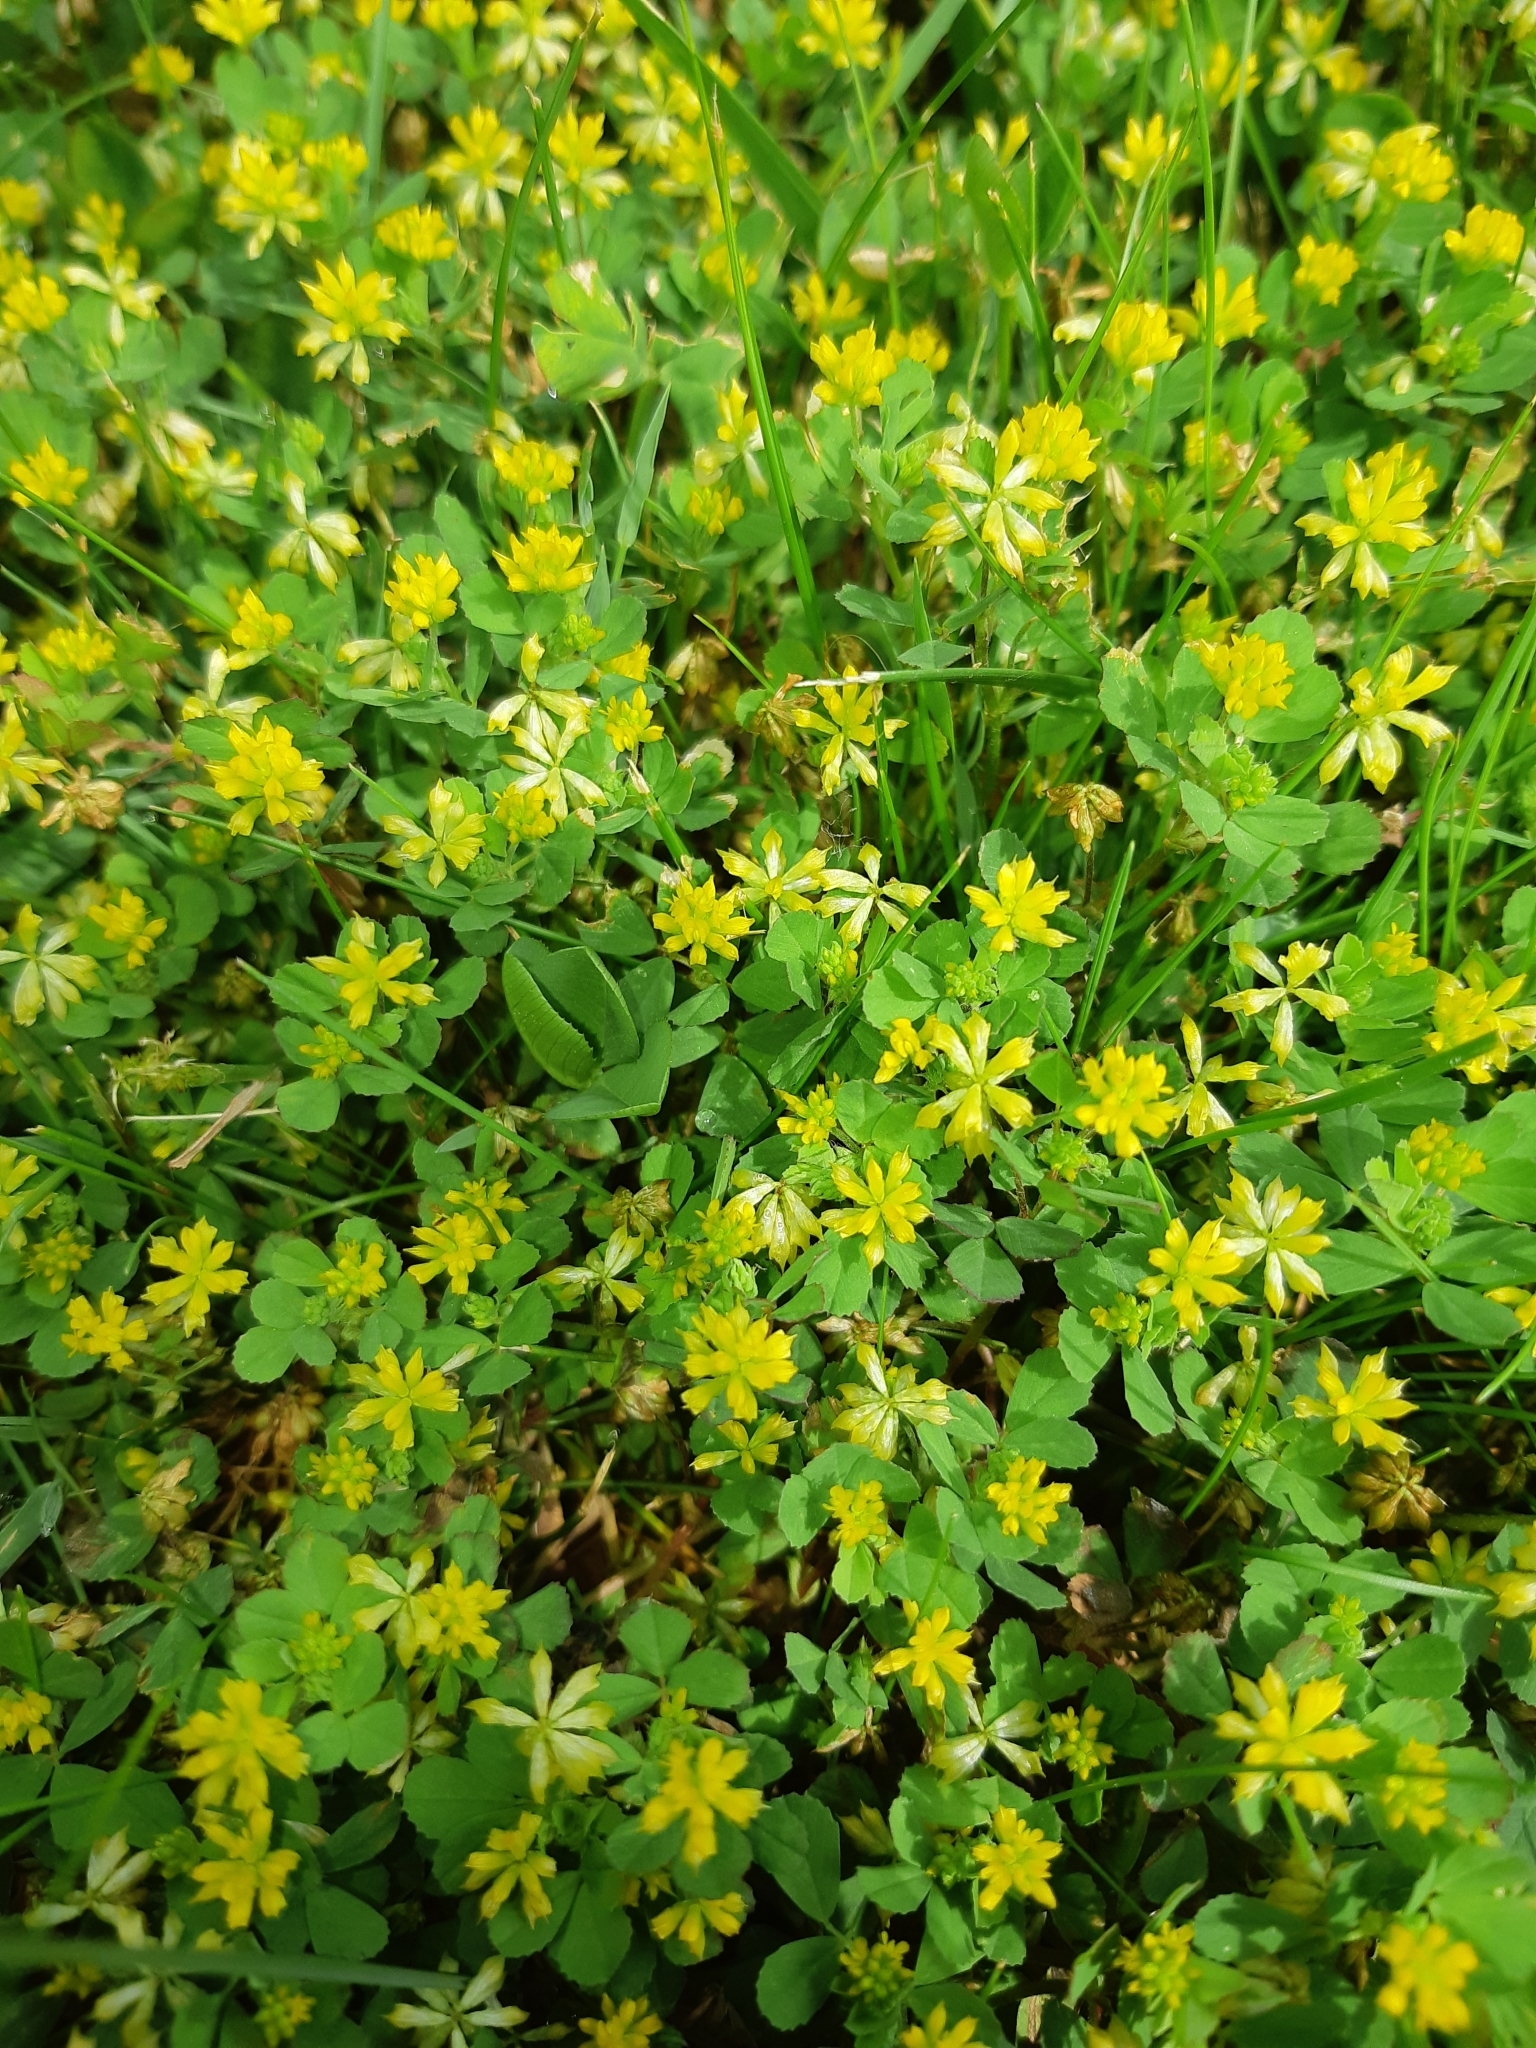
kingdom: Plantae
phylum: Tracheophyta
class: Magnoliopsida
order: Fabales
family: Fabaceae
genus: Trifolium
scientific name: Trifolium dubium
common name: Suckling clover
